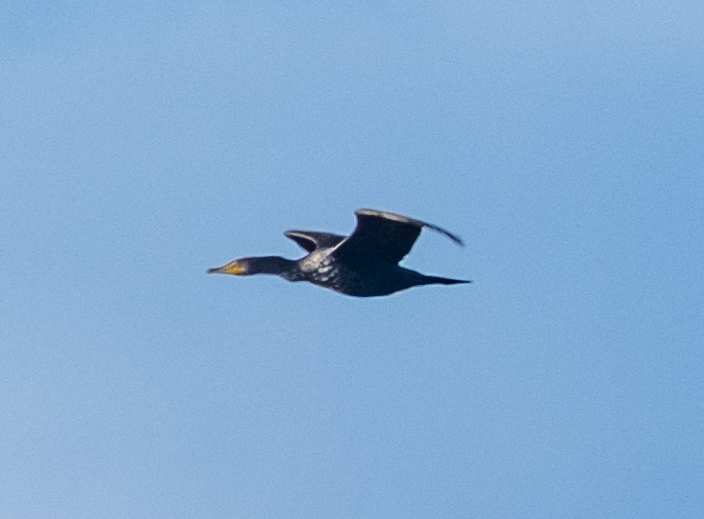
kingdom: Animalia
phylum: Chordata
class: Aves
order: Suliformes
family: Phalacrocoracidae
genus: Phalacrocorax
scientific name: Phalacrocorax auritus
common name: Double-crested cormorant
